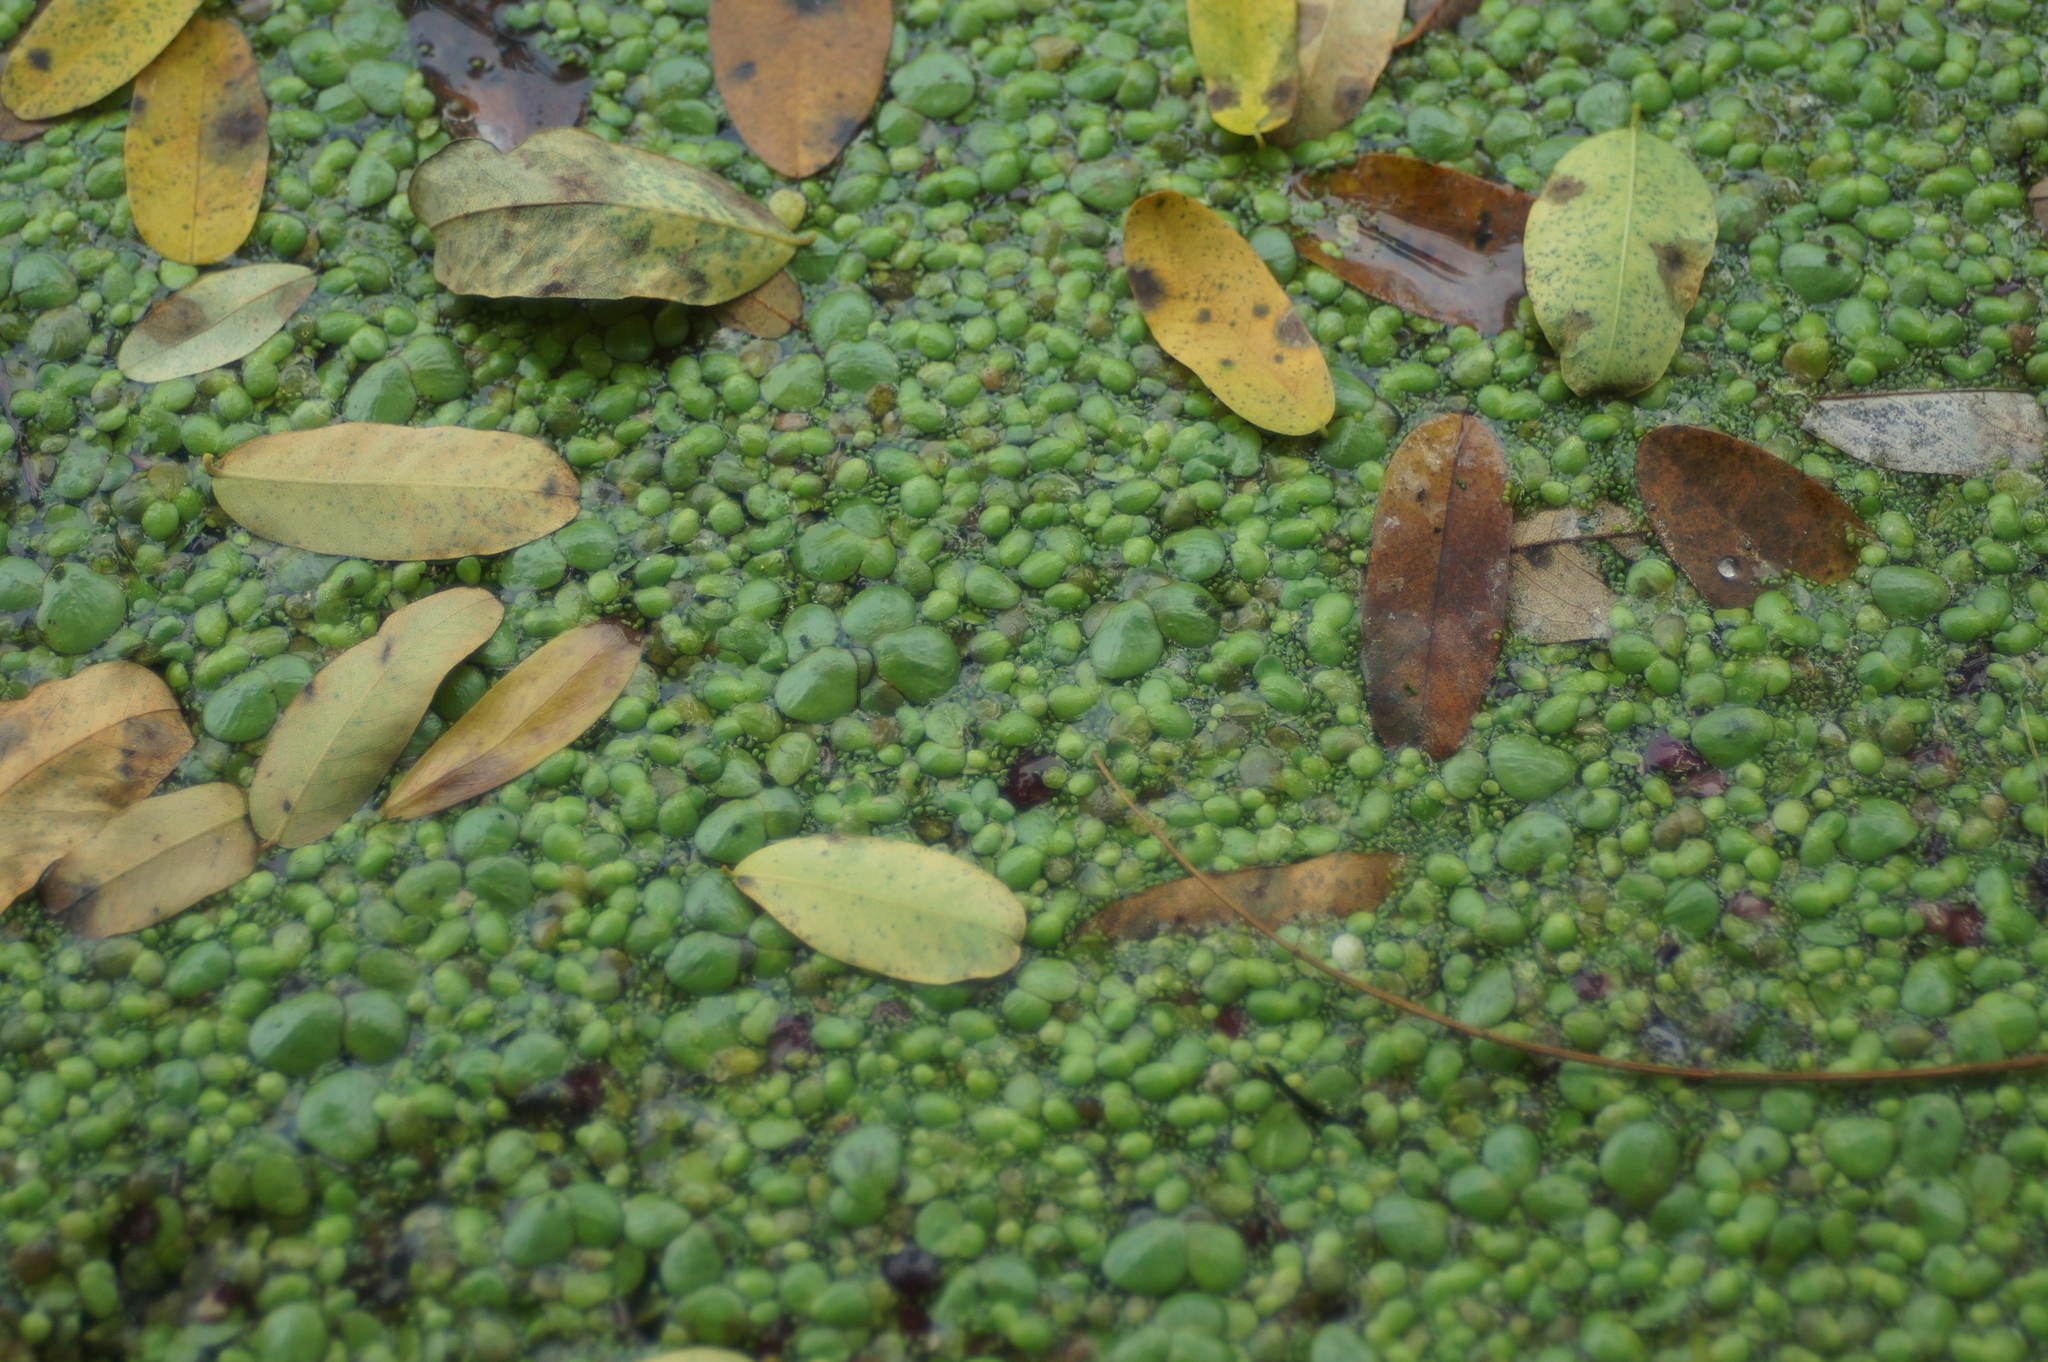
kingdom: Plantae
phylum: Tracheophyta
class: Liliopsida
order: Alismatales
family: Araceae
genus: Lemna
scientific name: Lemna minor
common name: Common duckweed
